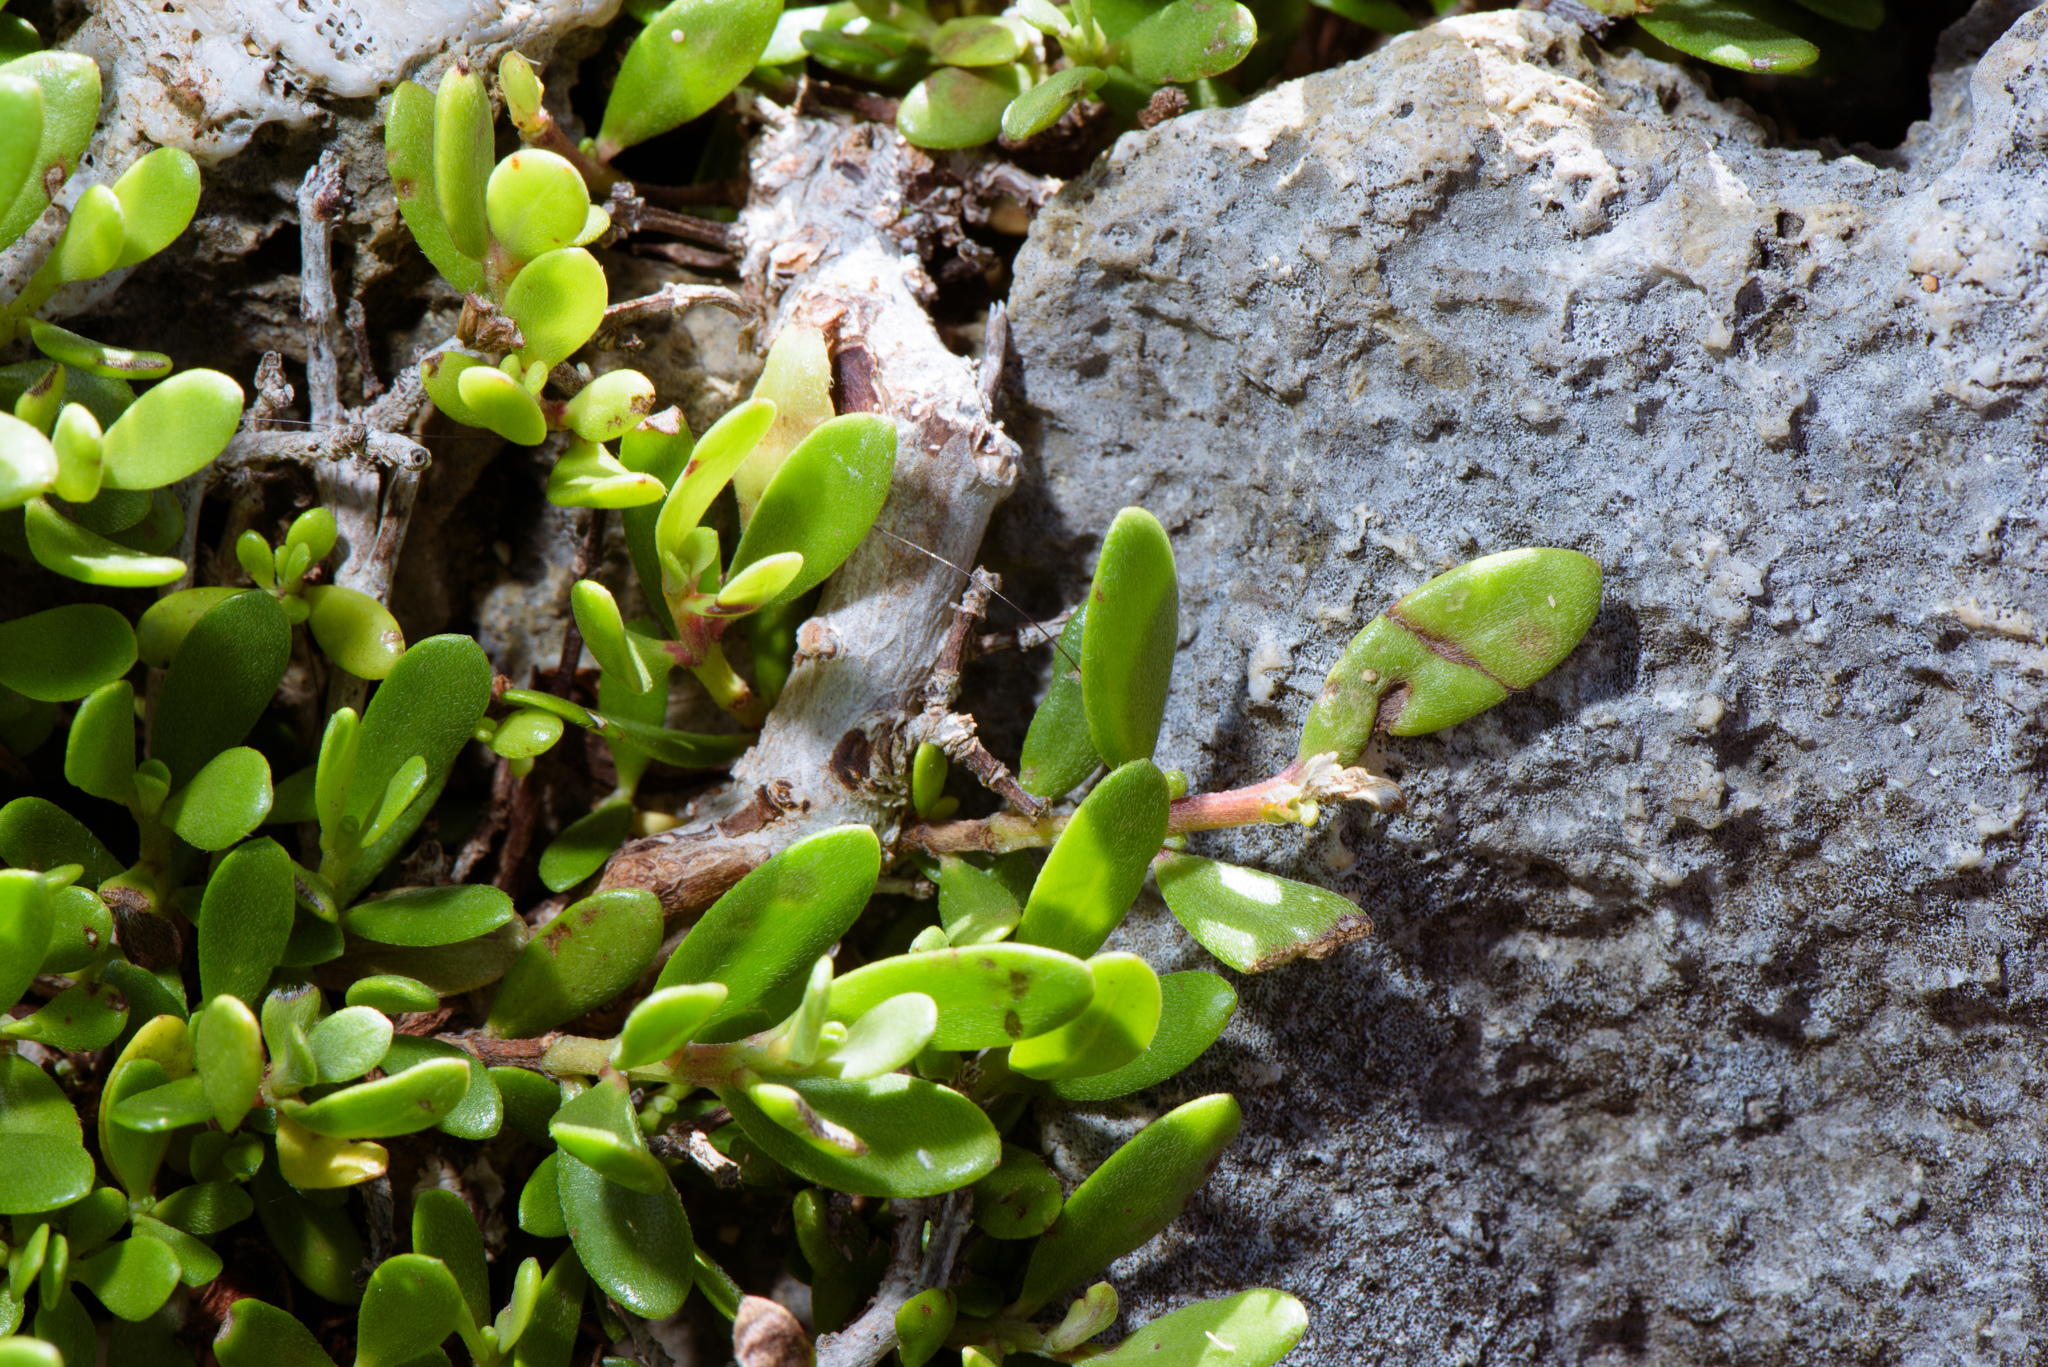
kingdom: Plantae
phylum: Tracheophyta
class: Magnoliopsida
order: Myrtales
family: Lythraceae
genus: Pemphis
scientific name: Pemphis acidula
